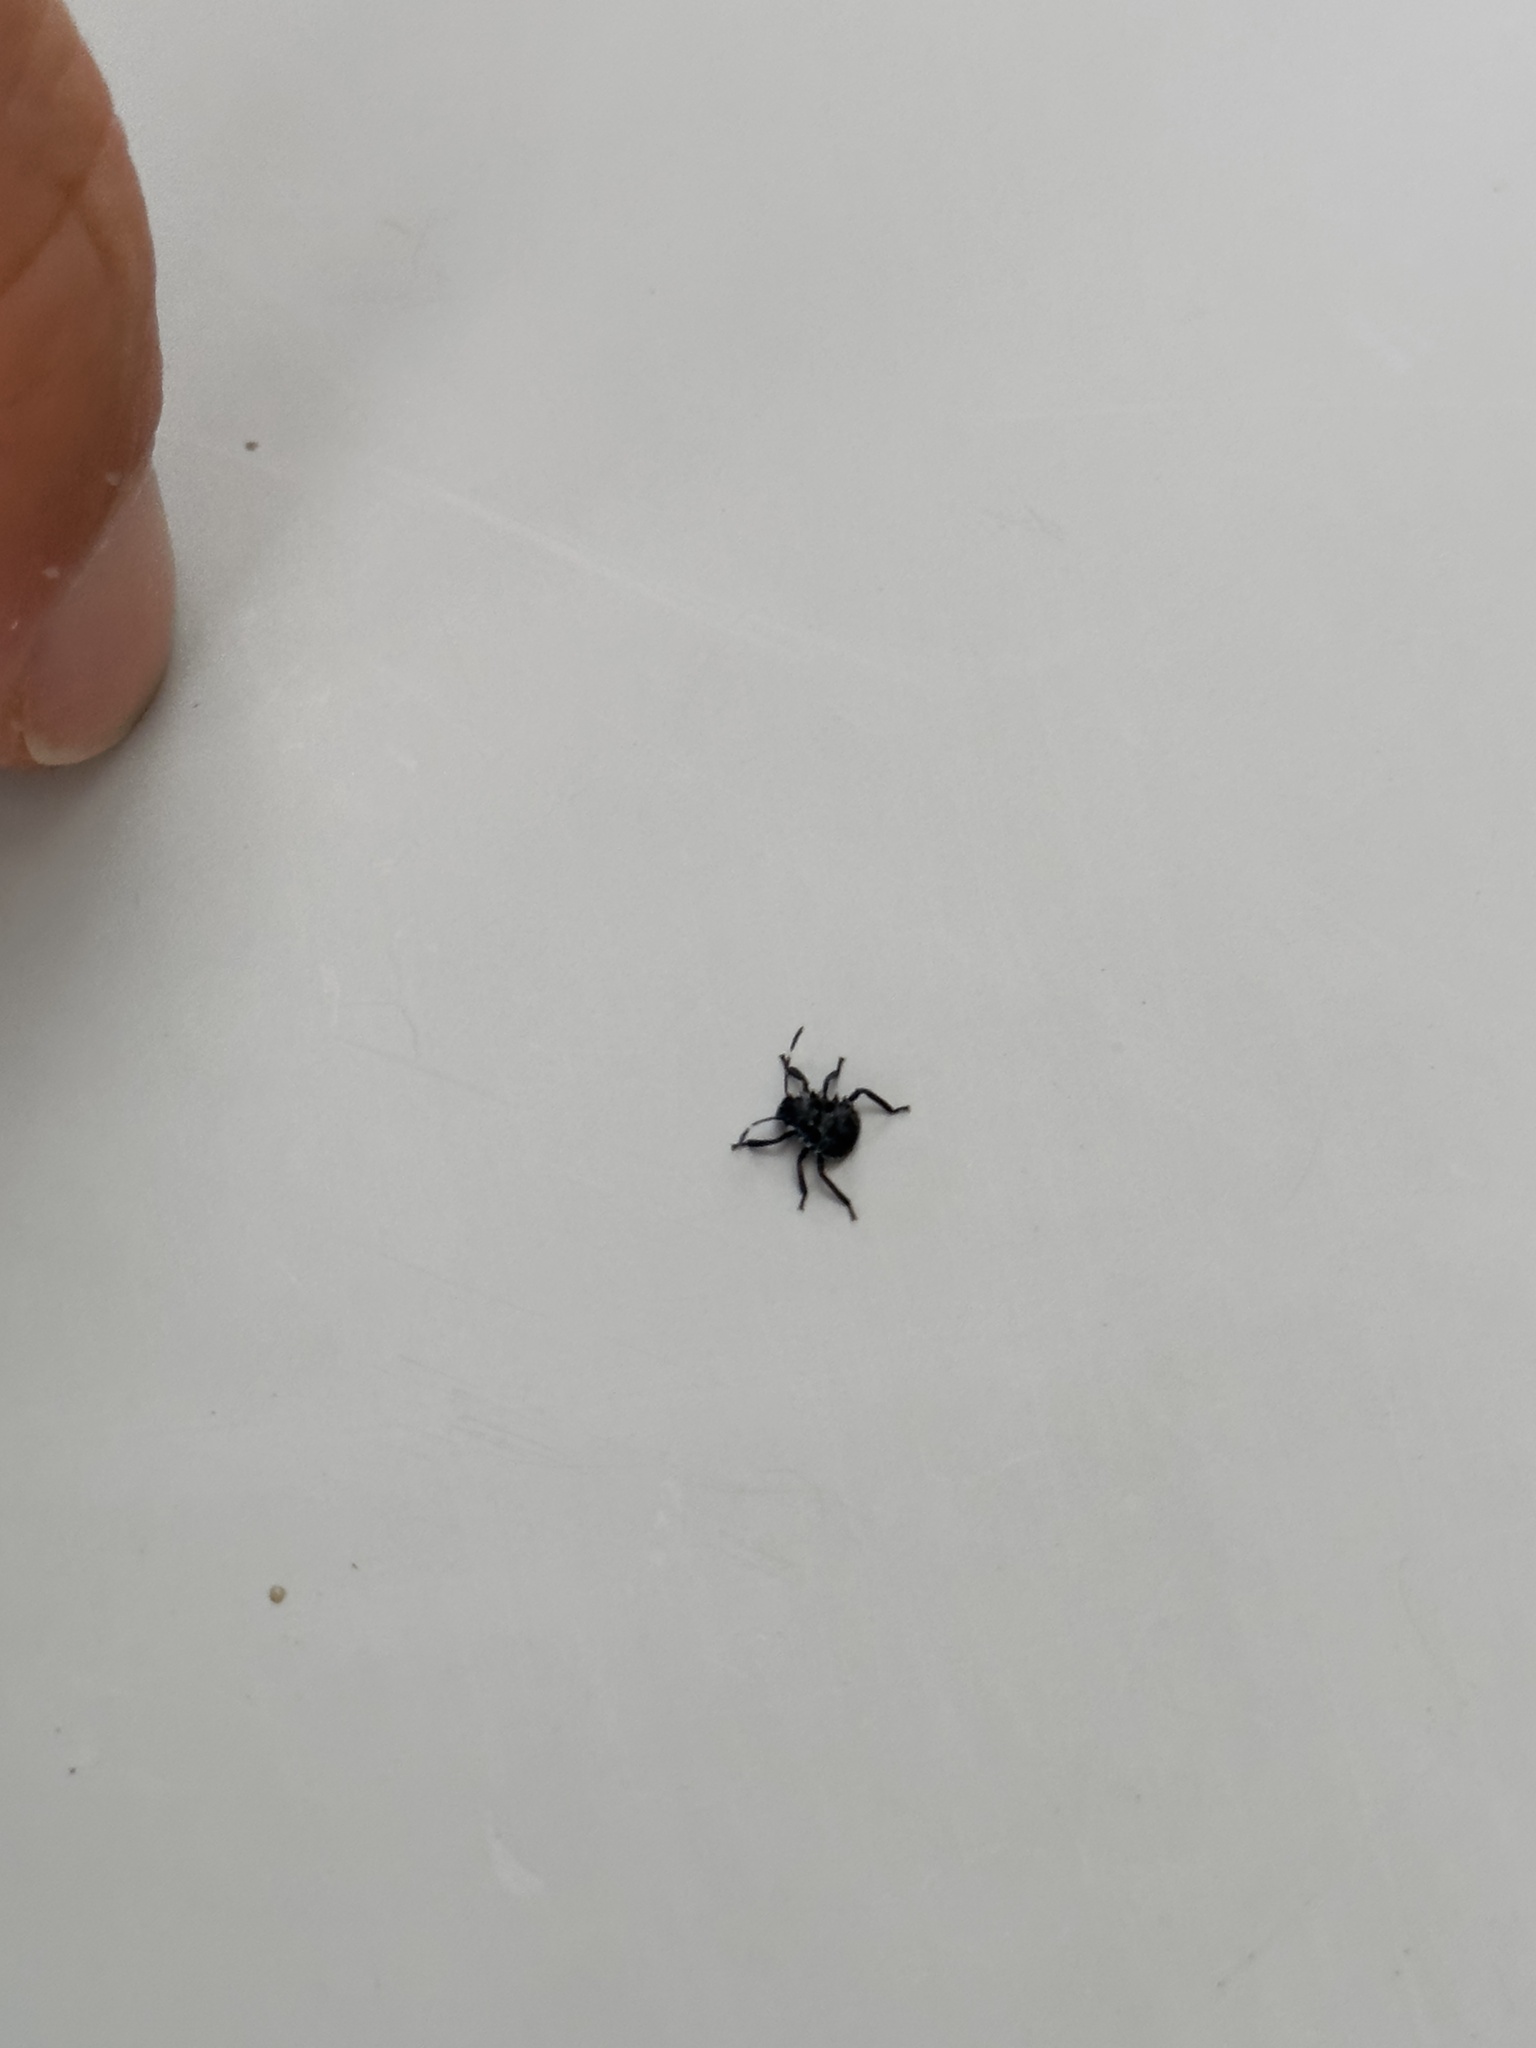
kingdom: Animalia
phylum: Arthropoda
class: Insecta
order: Hemiptera
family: Pentatomidae
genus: Halyomorpha
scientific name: Halyomorpha halys
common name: Brown marmorated stink bug
